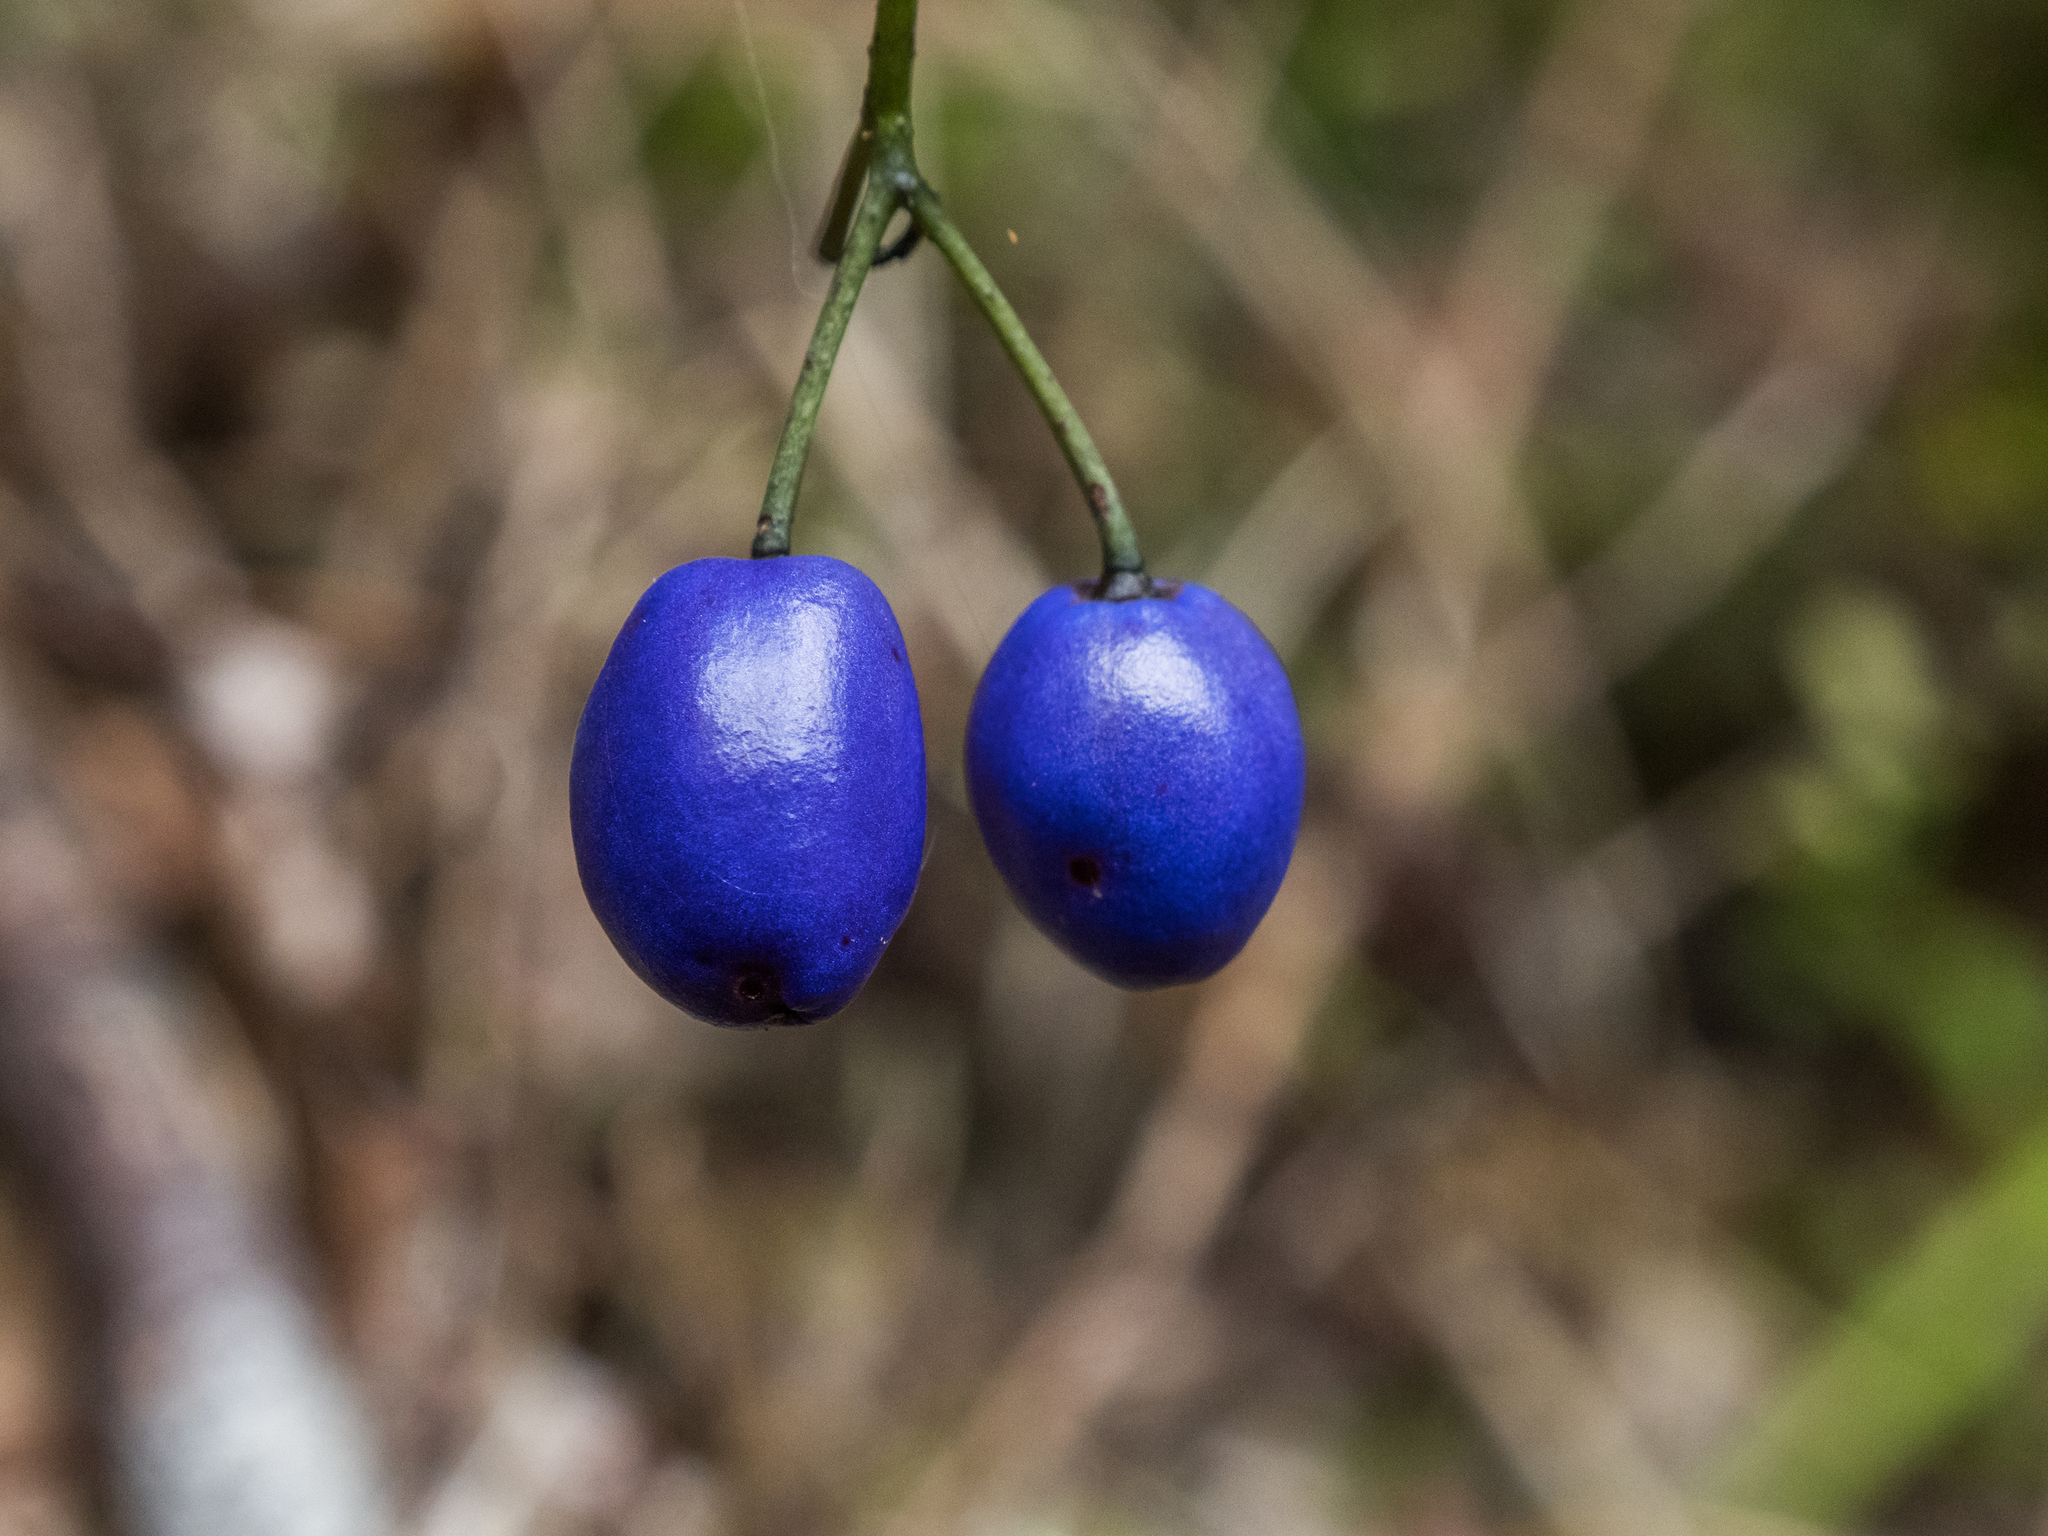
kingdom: Plantae
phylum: Tracheophyta
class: Liliopsida
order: Asparagales
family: Asphodelaceae
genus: Dianella
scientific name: Dianella nigra
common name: New zealand-blueberry
